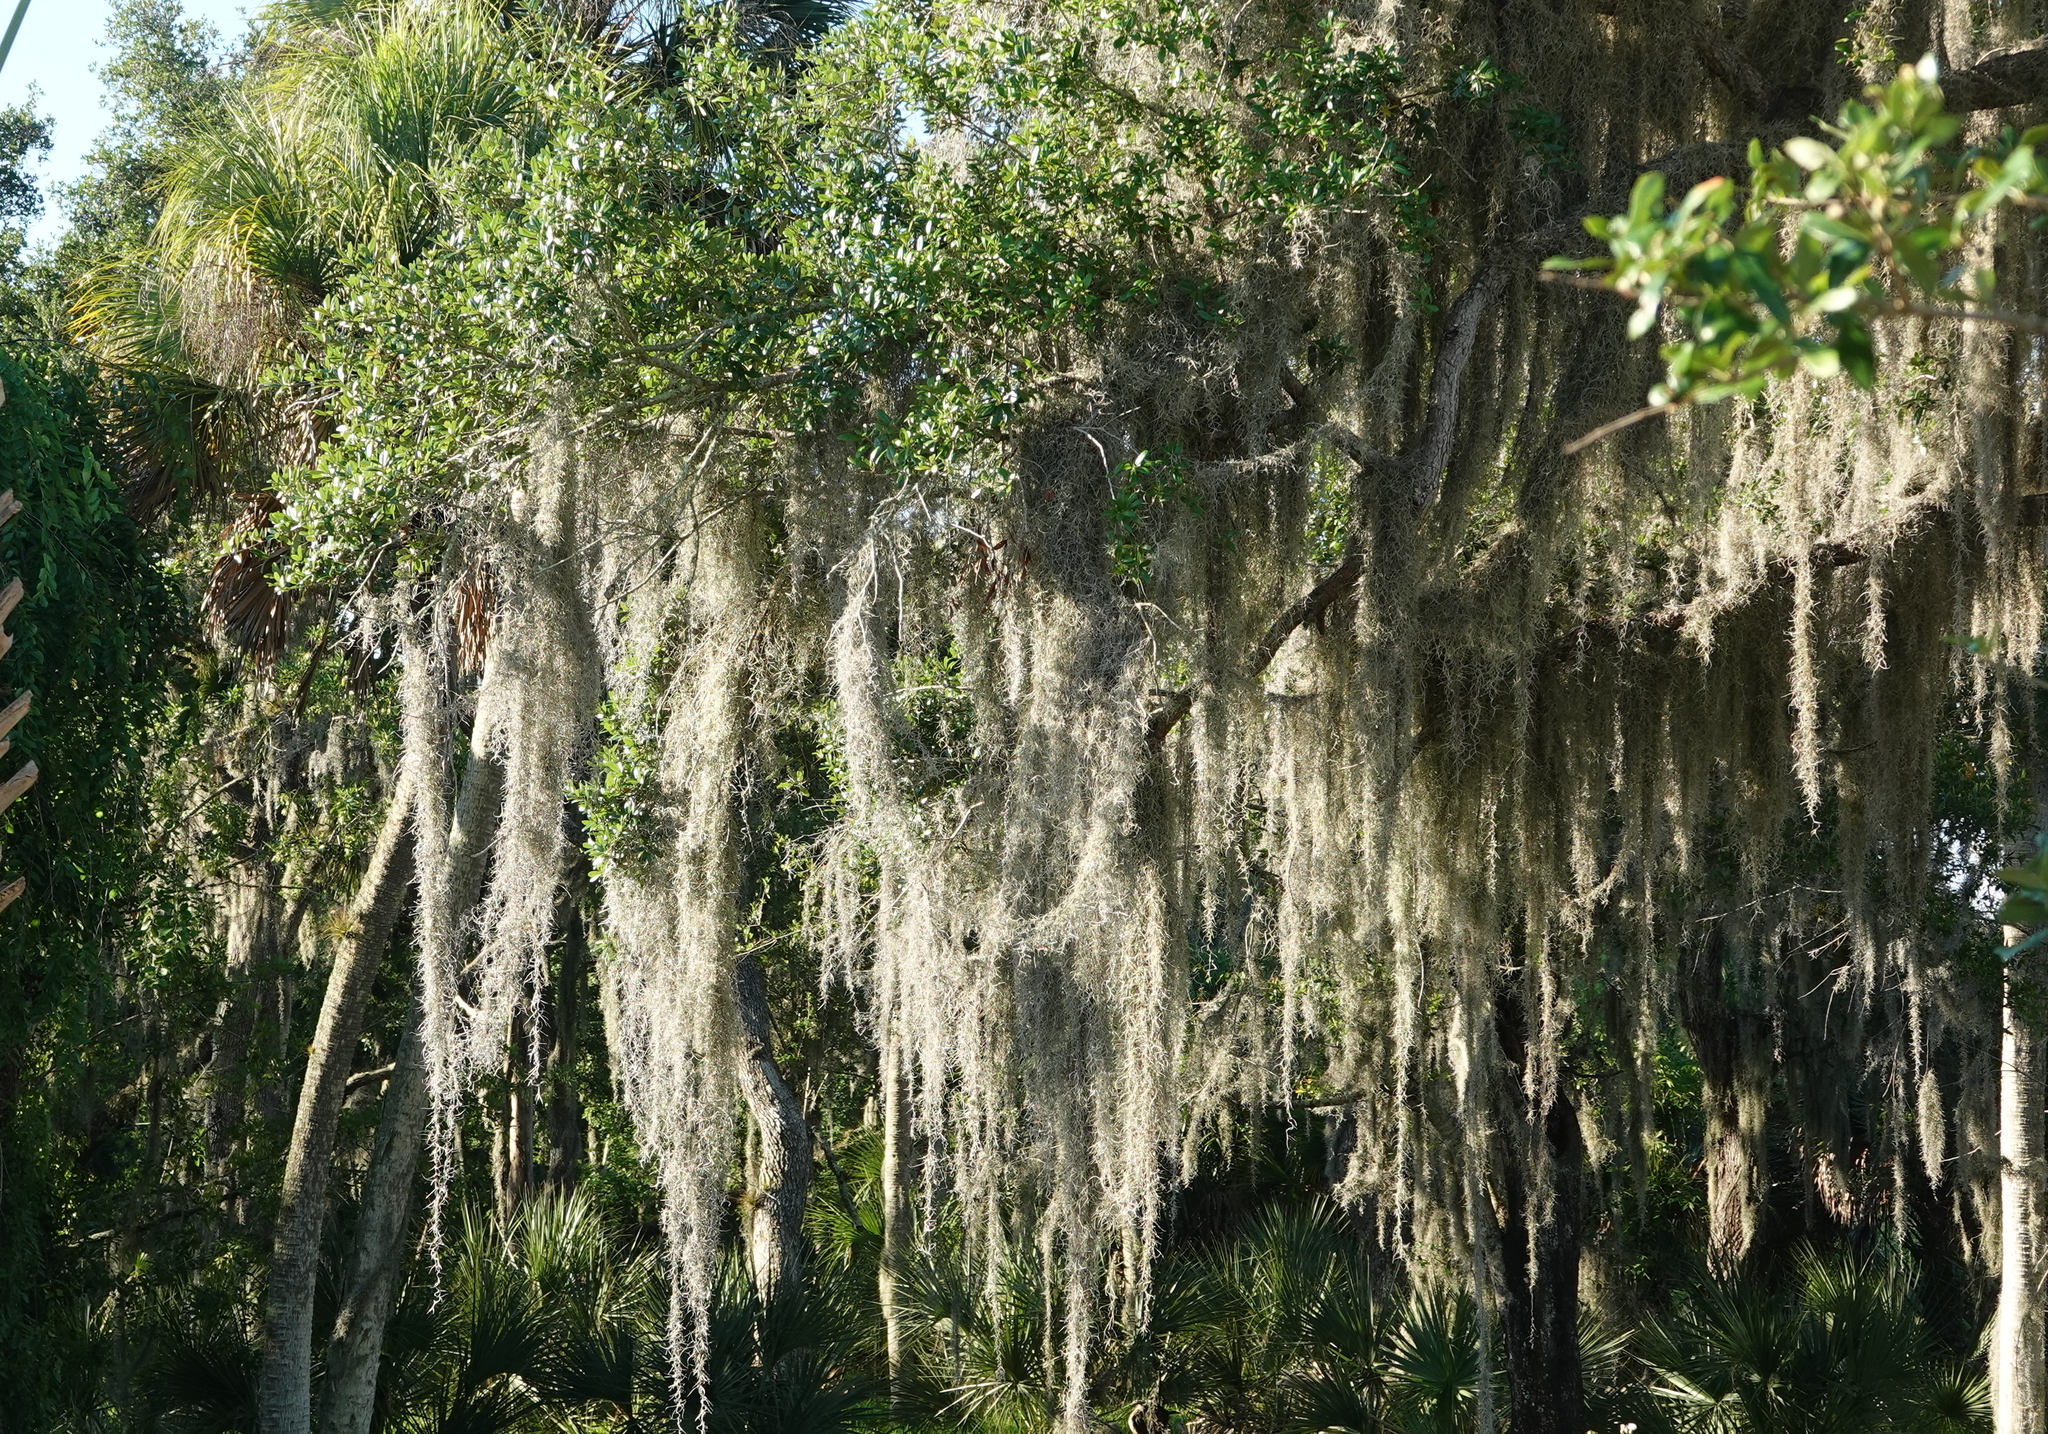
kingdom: Plantae
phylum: Tracheophyta
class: Liliopsida
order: Poales
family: Bromeliaceae
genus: Tillandsia
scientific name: Tillandsia usneoides
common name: Spanish moss
